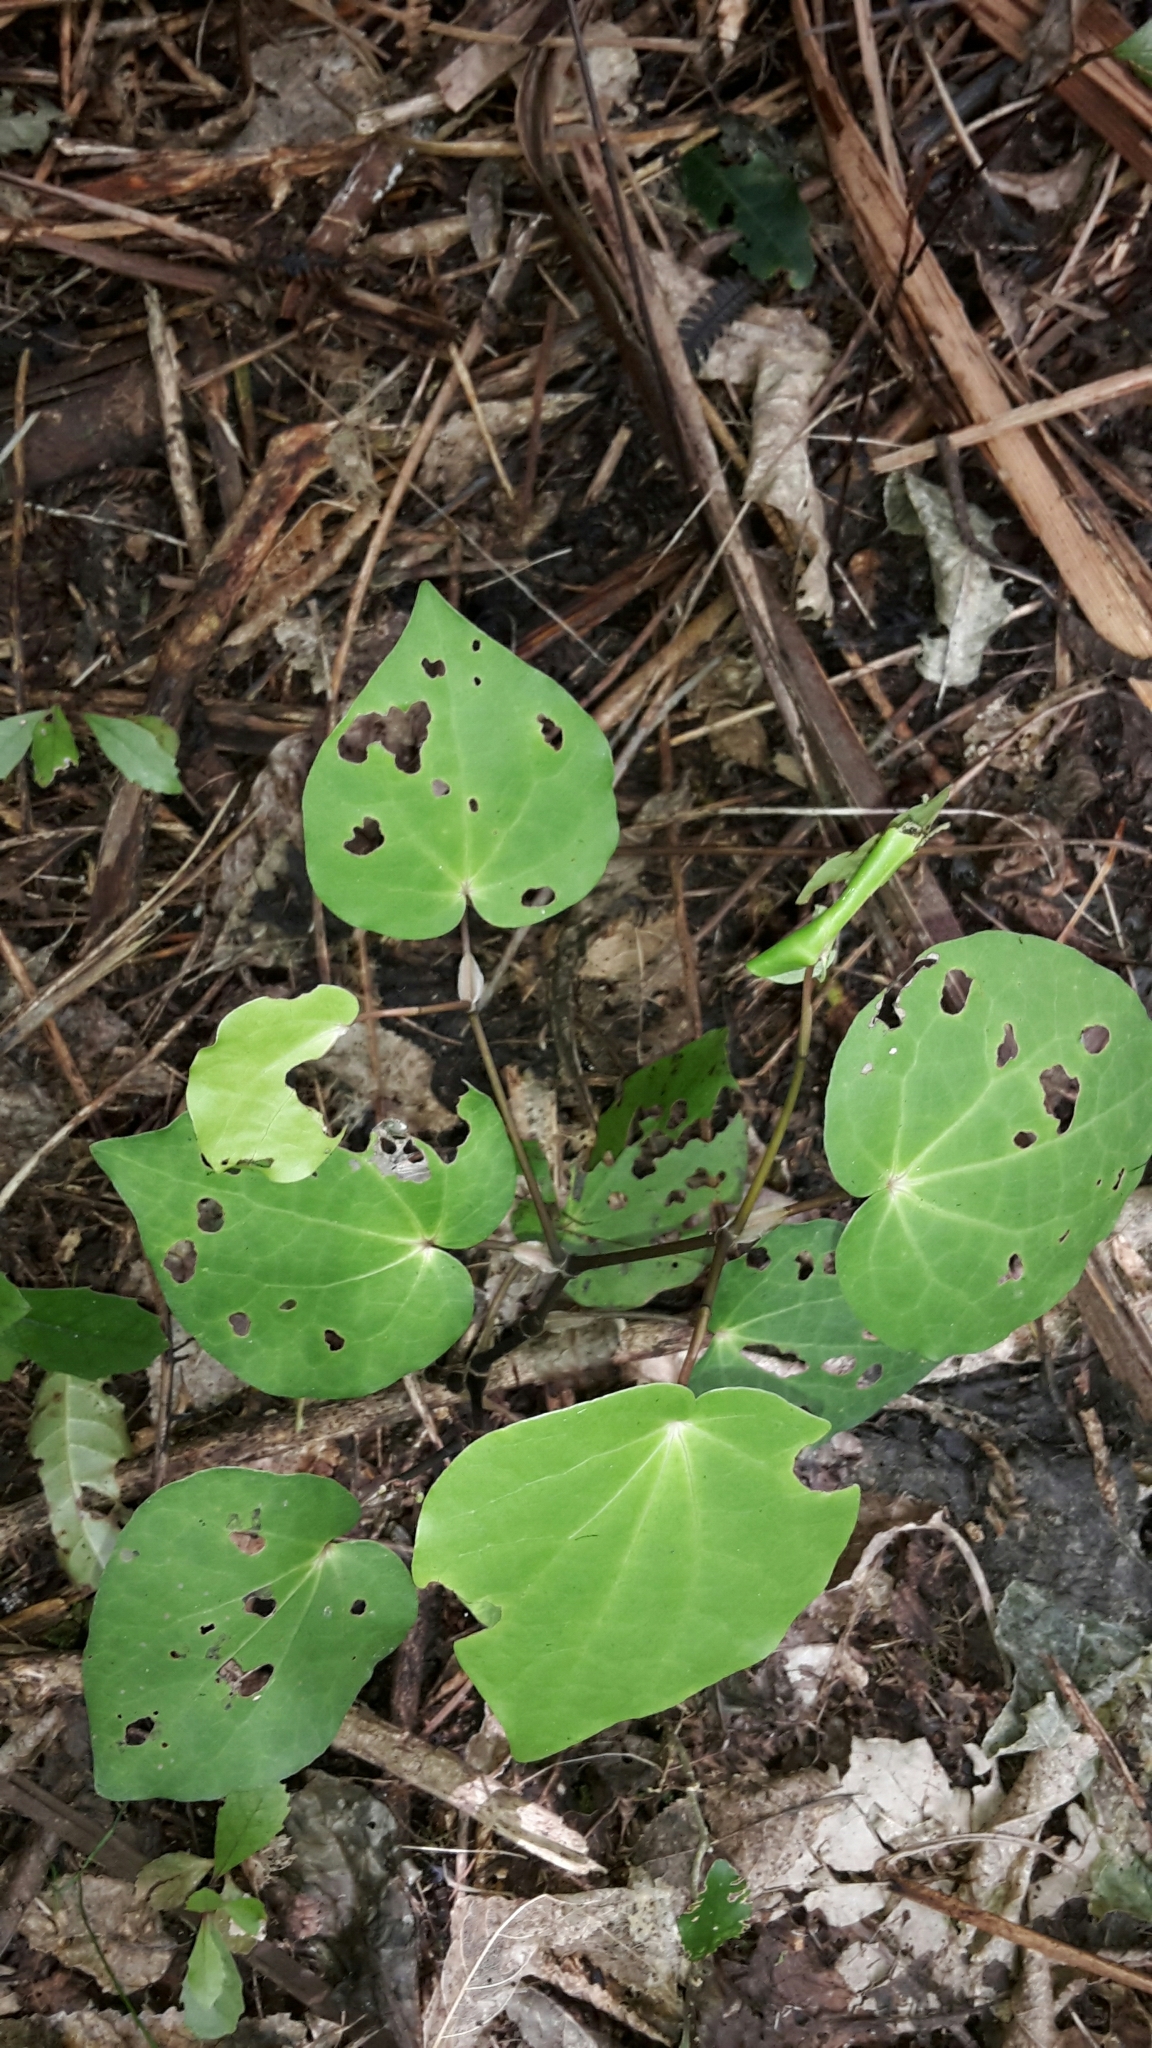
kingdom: Plantae
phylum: Tracheophyta
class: Magnoliopsida
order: Piperales
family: Piperaceae
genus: Macropiper
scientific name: Macropiper excelsum
